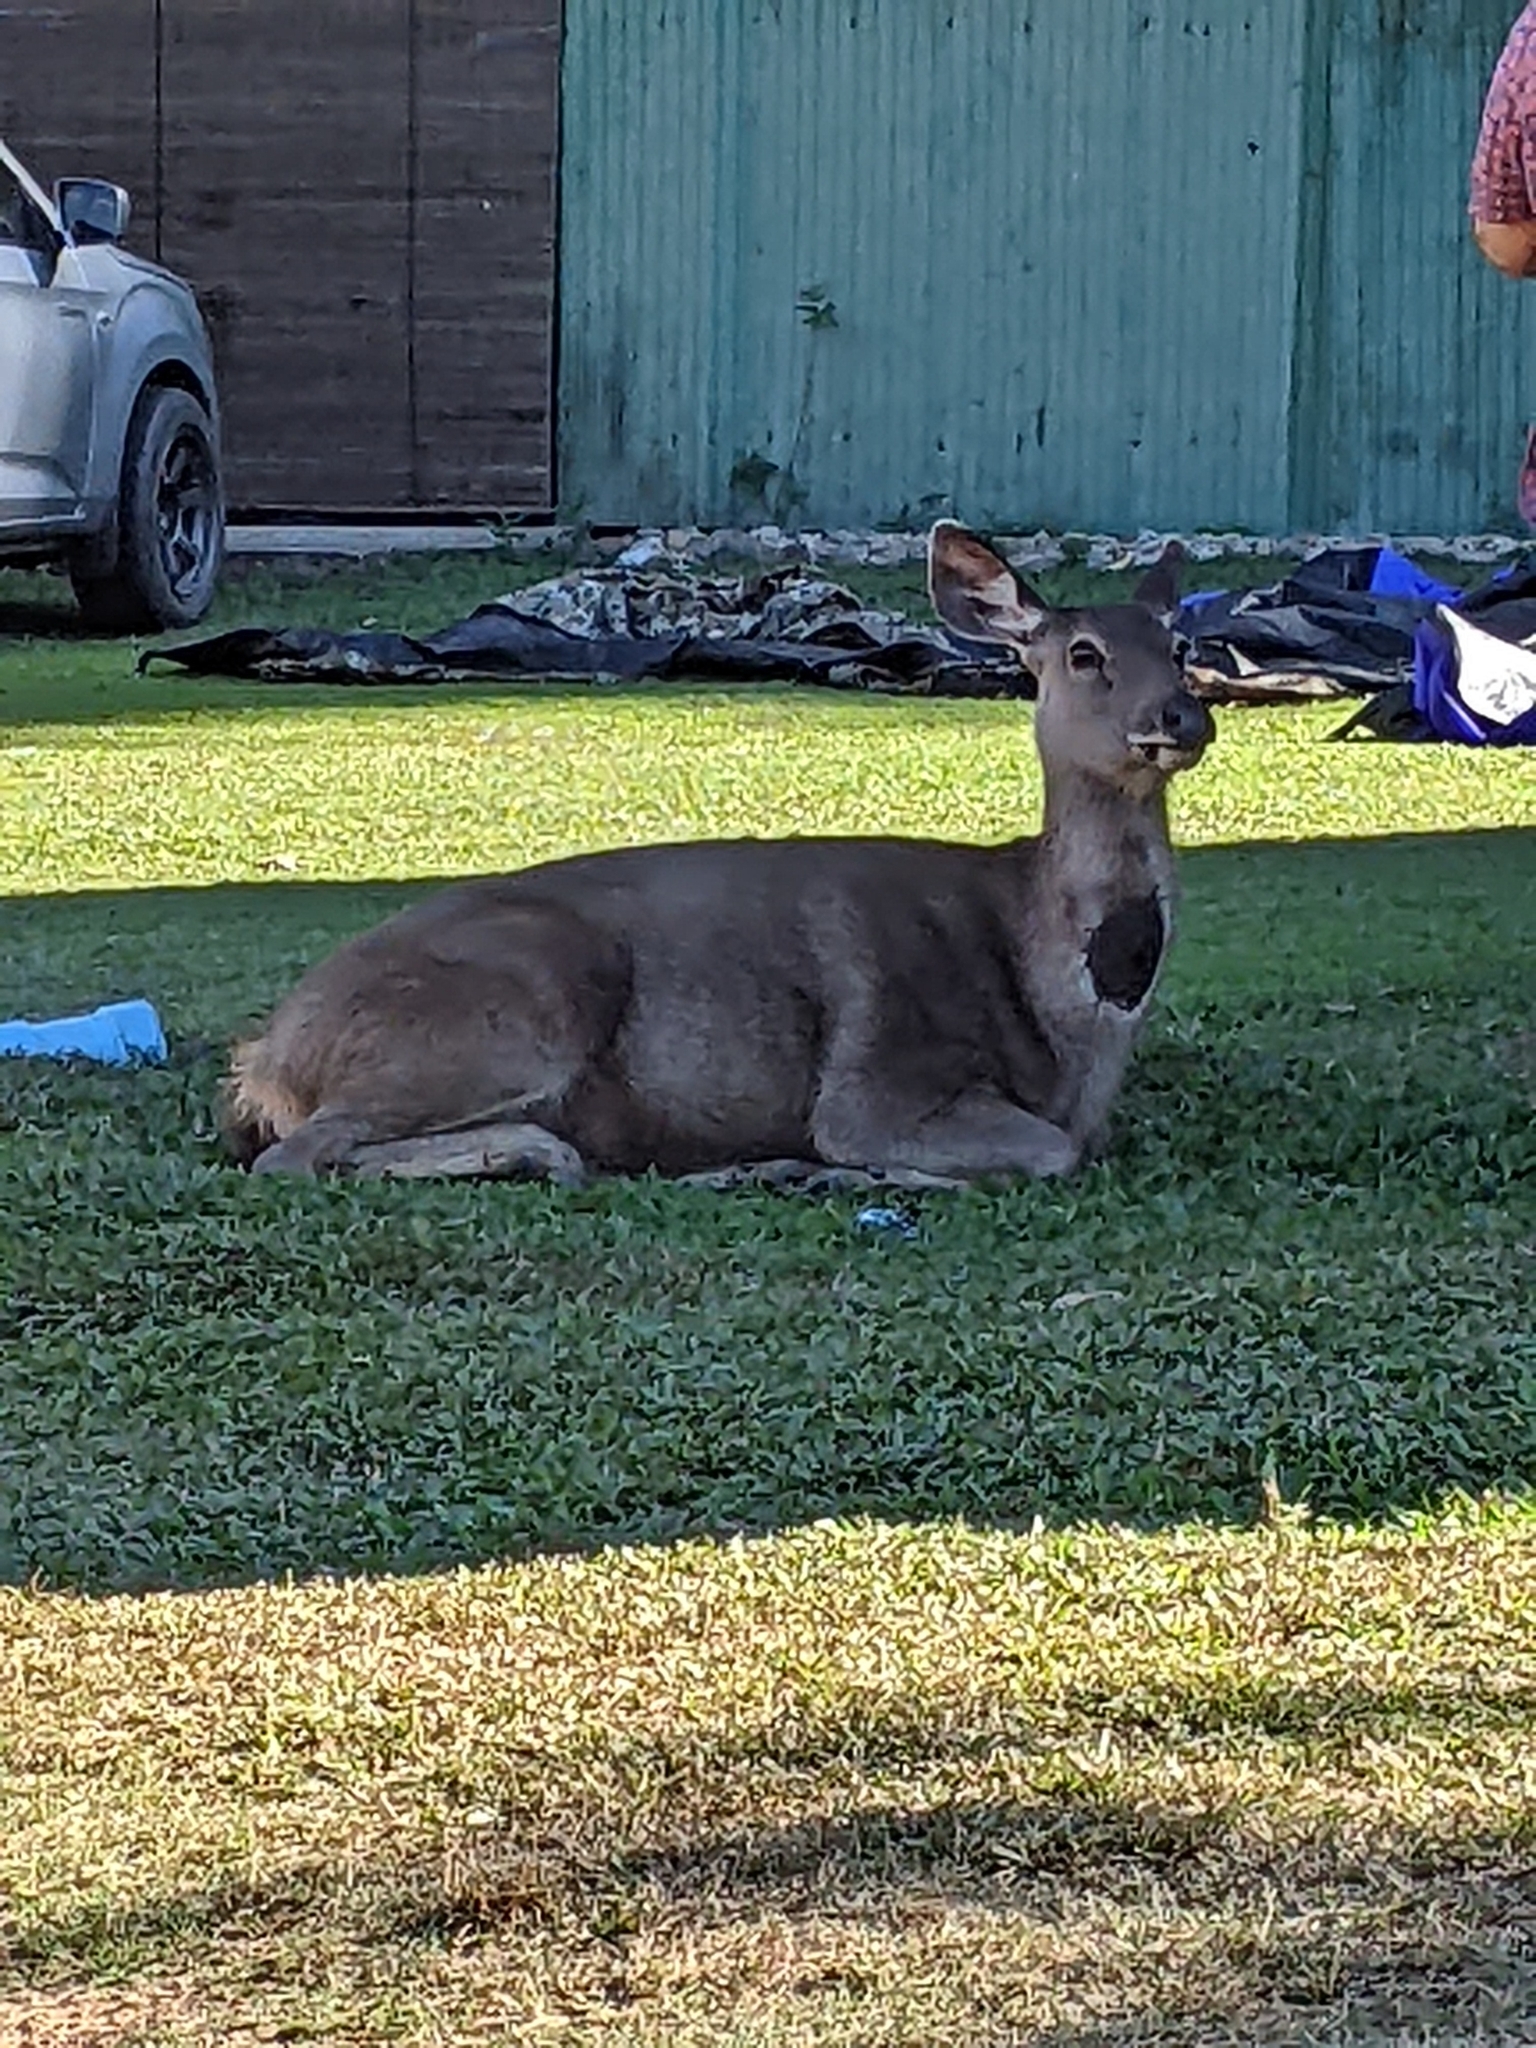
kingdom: Animalia
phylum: Chordata
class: Mammalia
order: Artiodactyla
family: Cervidae
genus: Rusa
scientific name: Rusa unicolor
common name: Sambar
